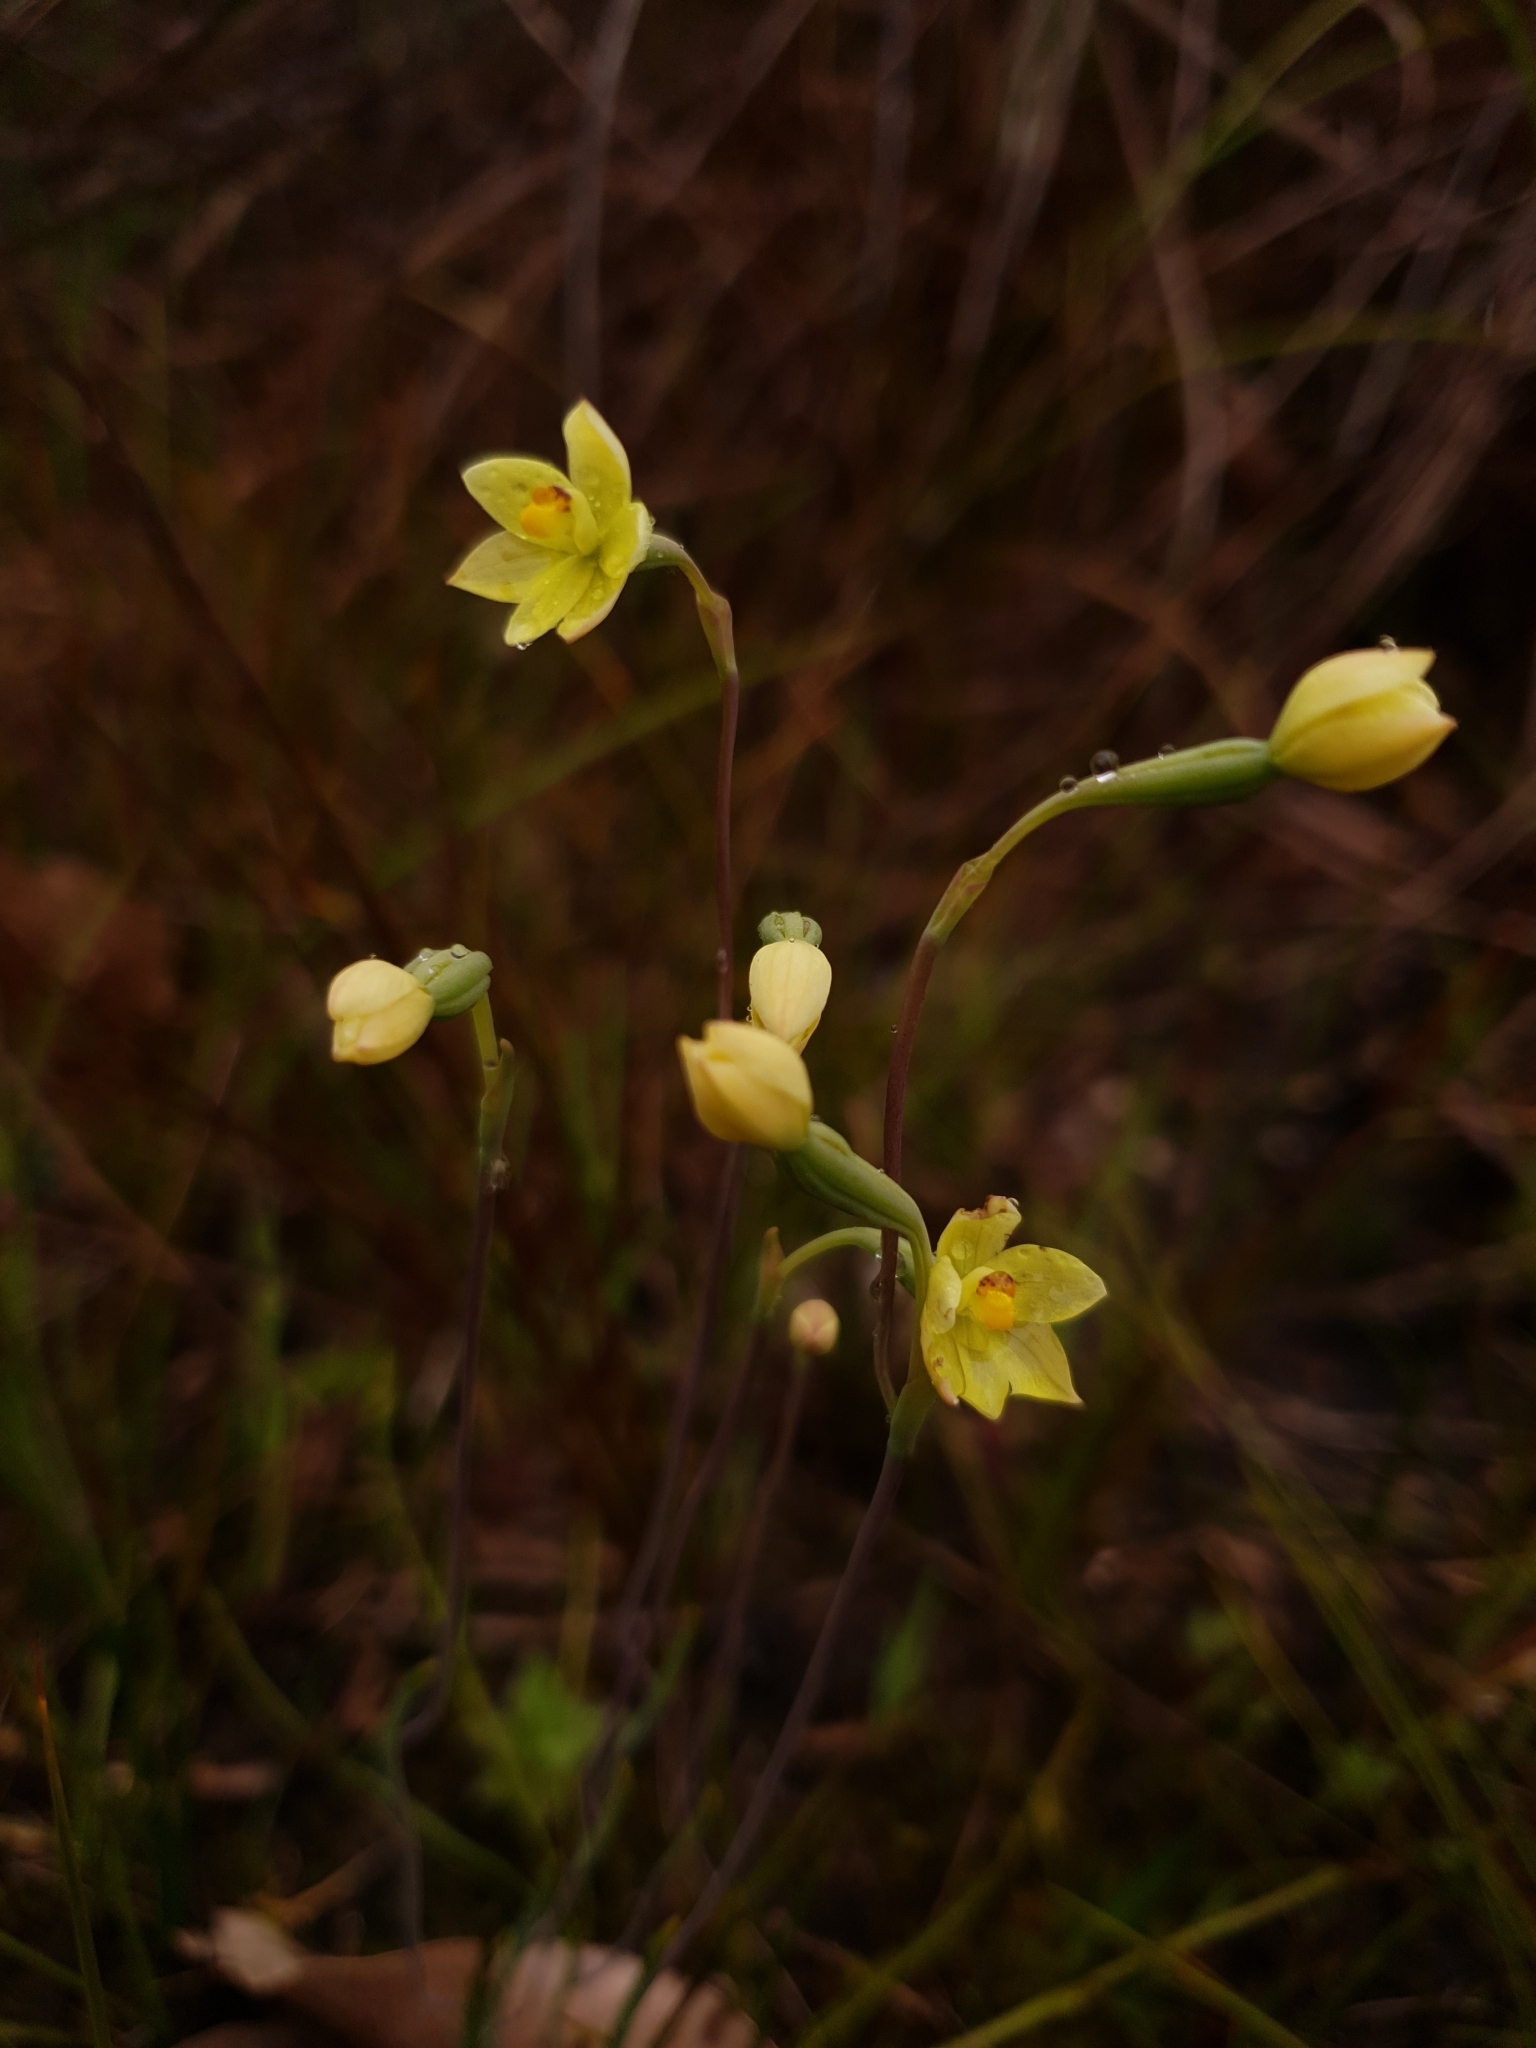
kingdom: Plantae
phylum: Tracheophyta
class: Liliopsida
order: Asparagales
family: Orchidaceae
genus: Thelymitra
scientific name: Thelymitra flexuosa
